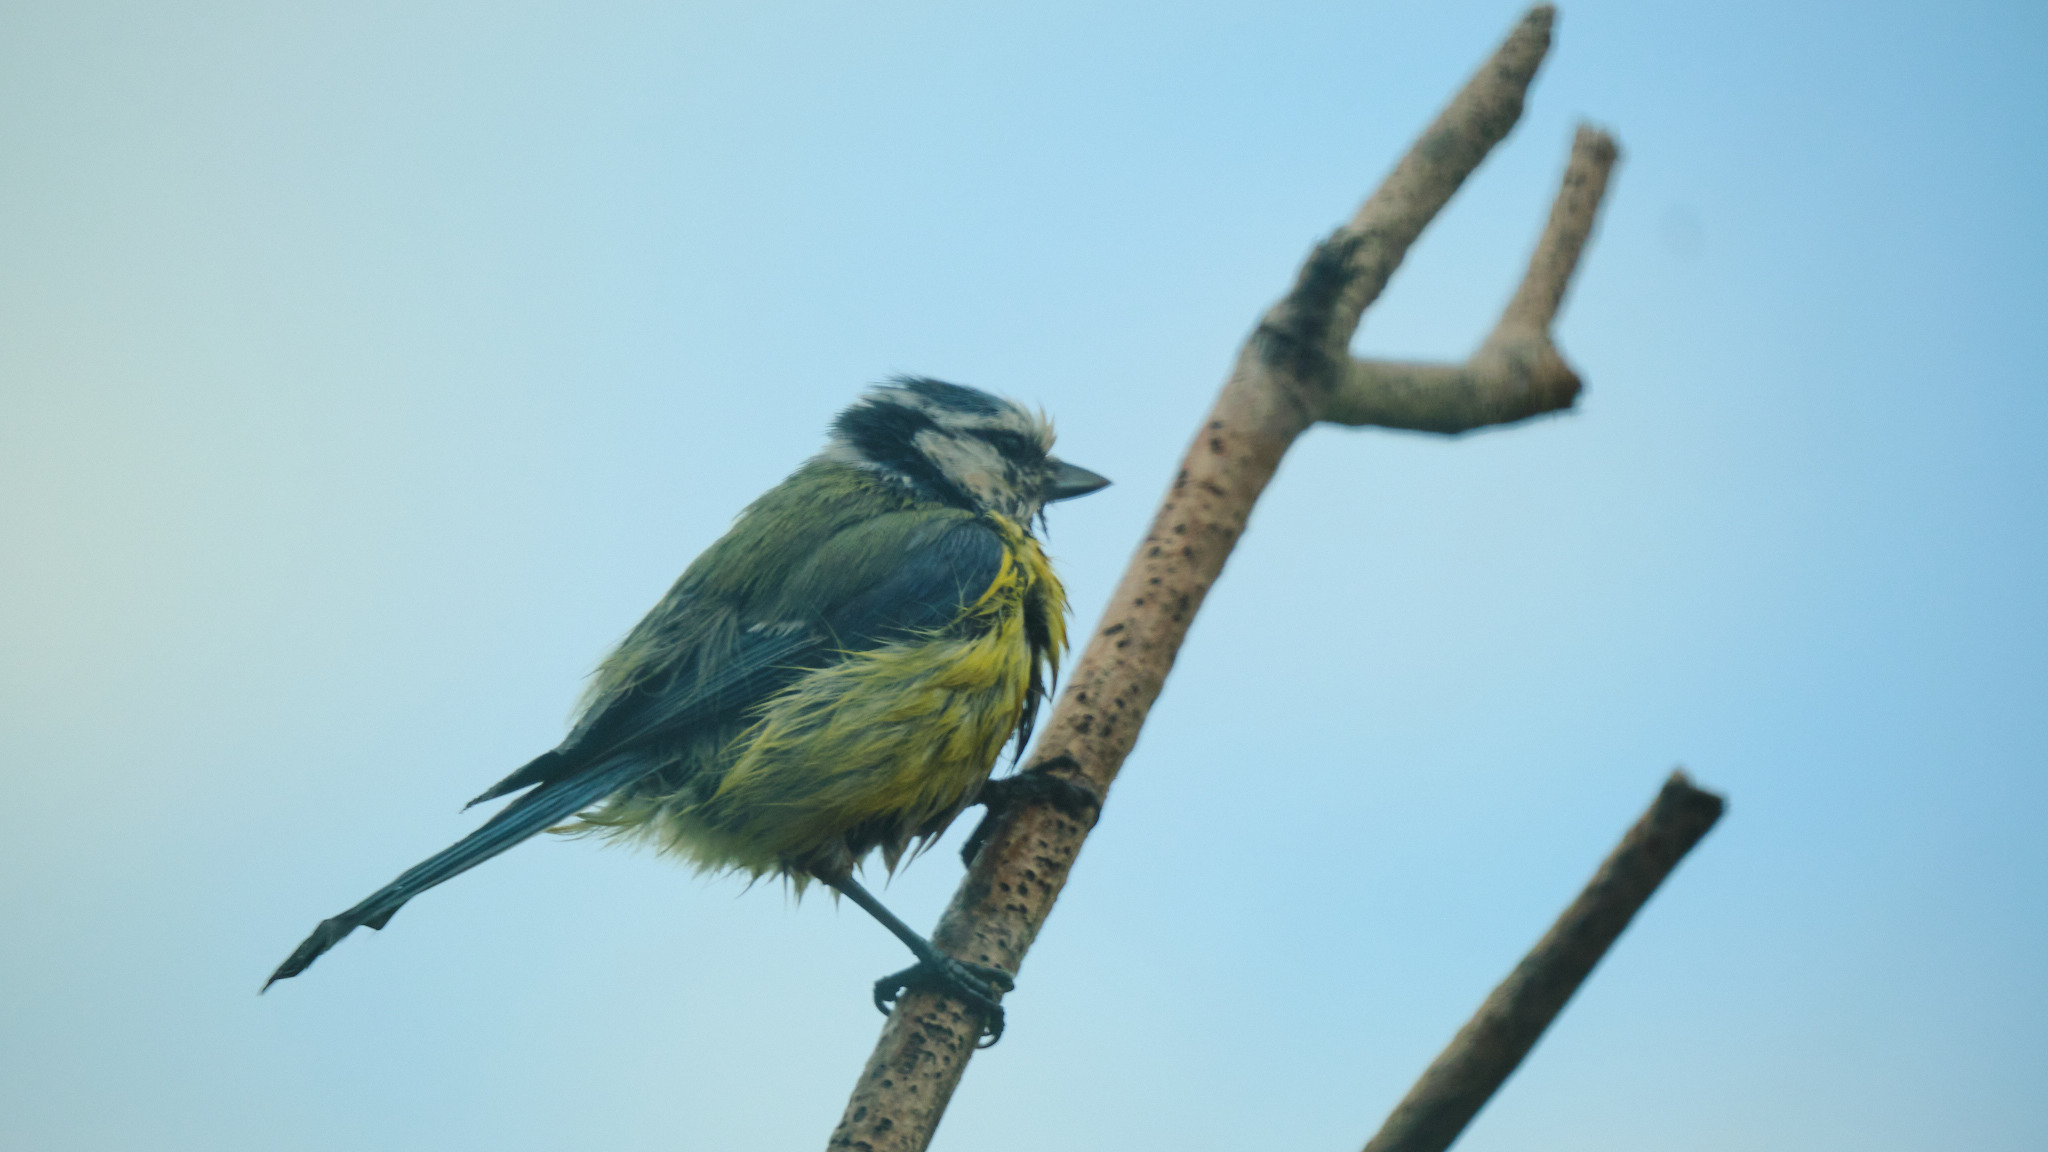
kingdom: Animalia
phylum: Chordata
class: Aves
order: Passeriformes
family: Paridae
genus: Cyanistes
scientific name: Cyanistes caeruleus
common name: Eurasian blue tit
